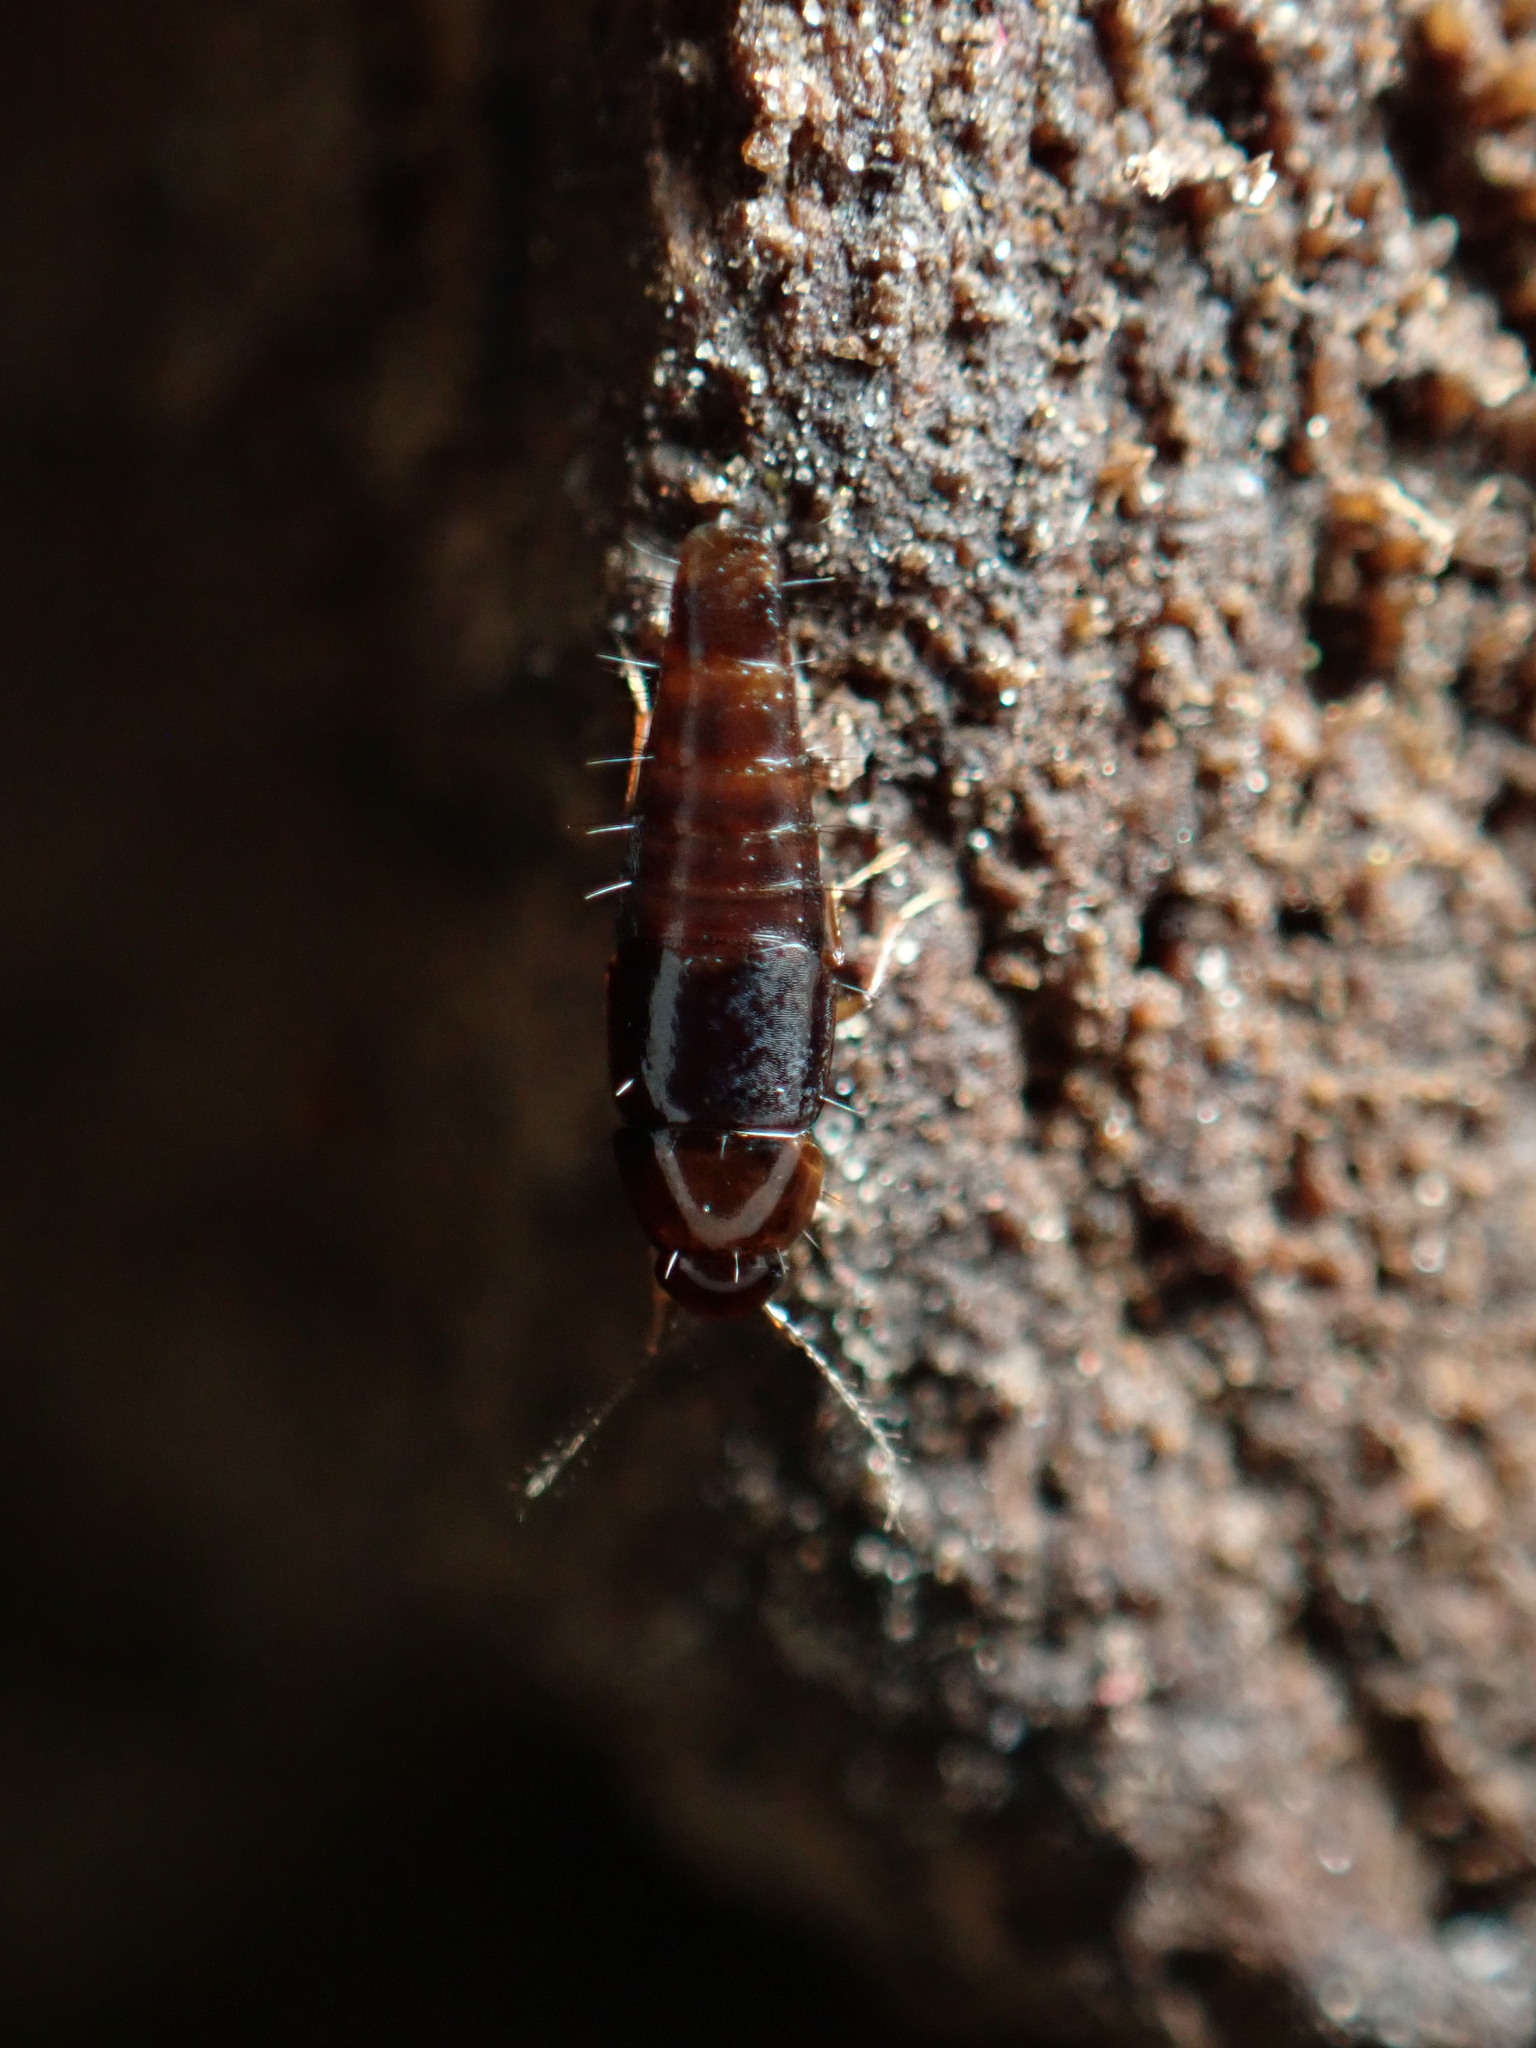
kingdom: Animalia
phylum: Arthropoda
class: Insecta
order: Coleoptera
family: Staphylinidae
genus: Habrocerus
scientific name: Habrocerus capillaricornis
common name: Staph beetle
